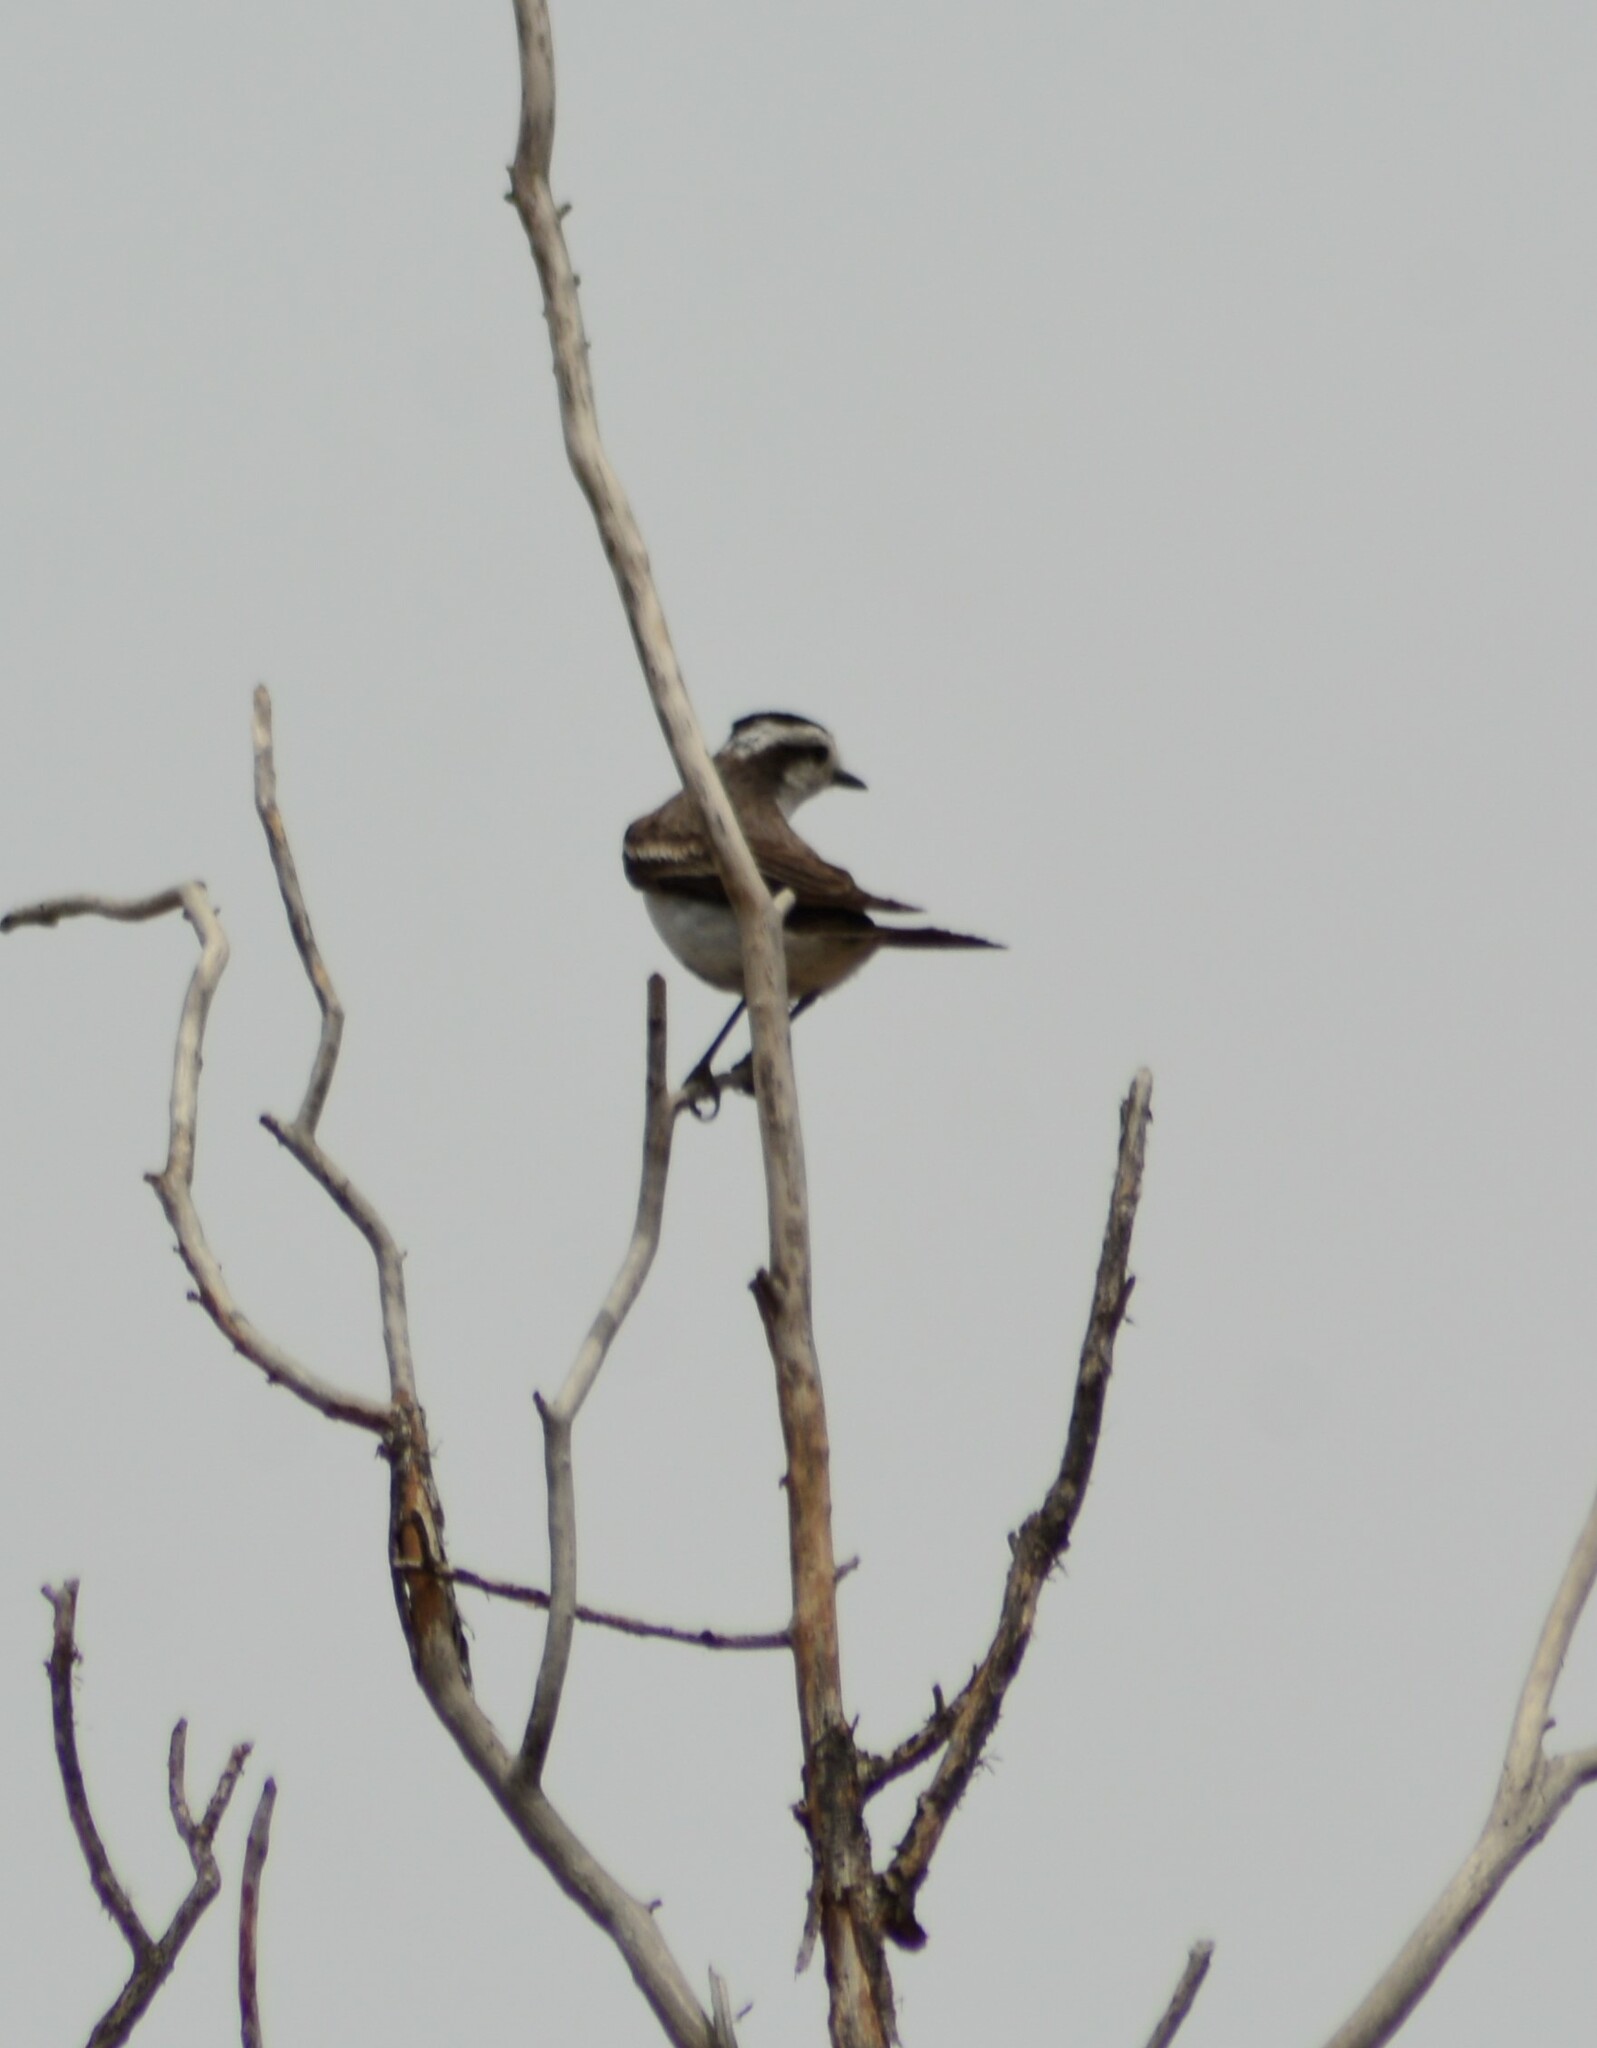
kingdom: Animalia
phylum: Chordata
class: Aves
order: Passeriformes
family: Tyrannidae
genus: Xolmis
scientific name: Xolmis coronatus
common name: Black-crowned monjita
